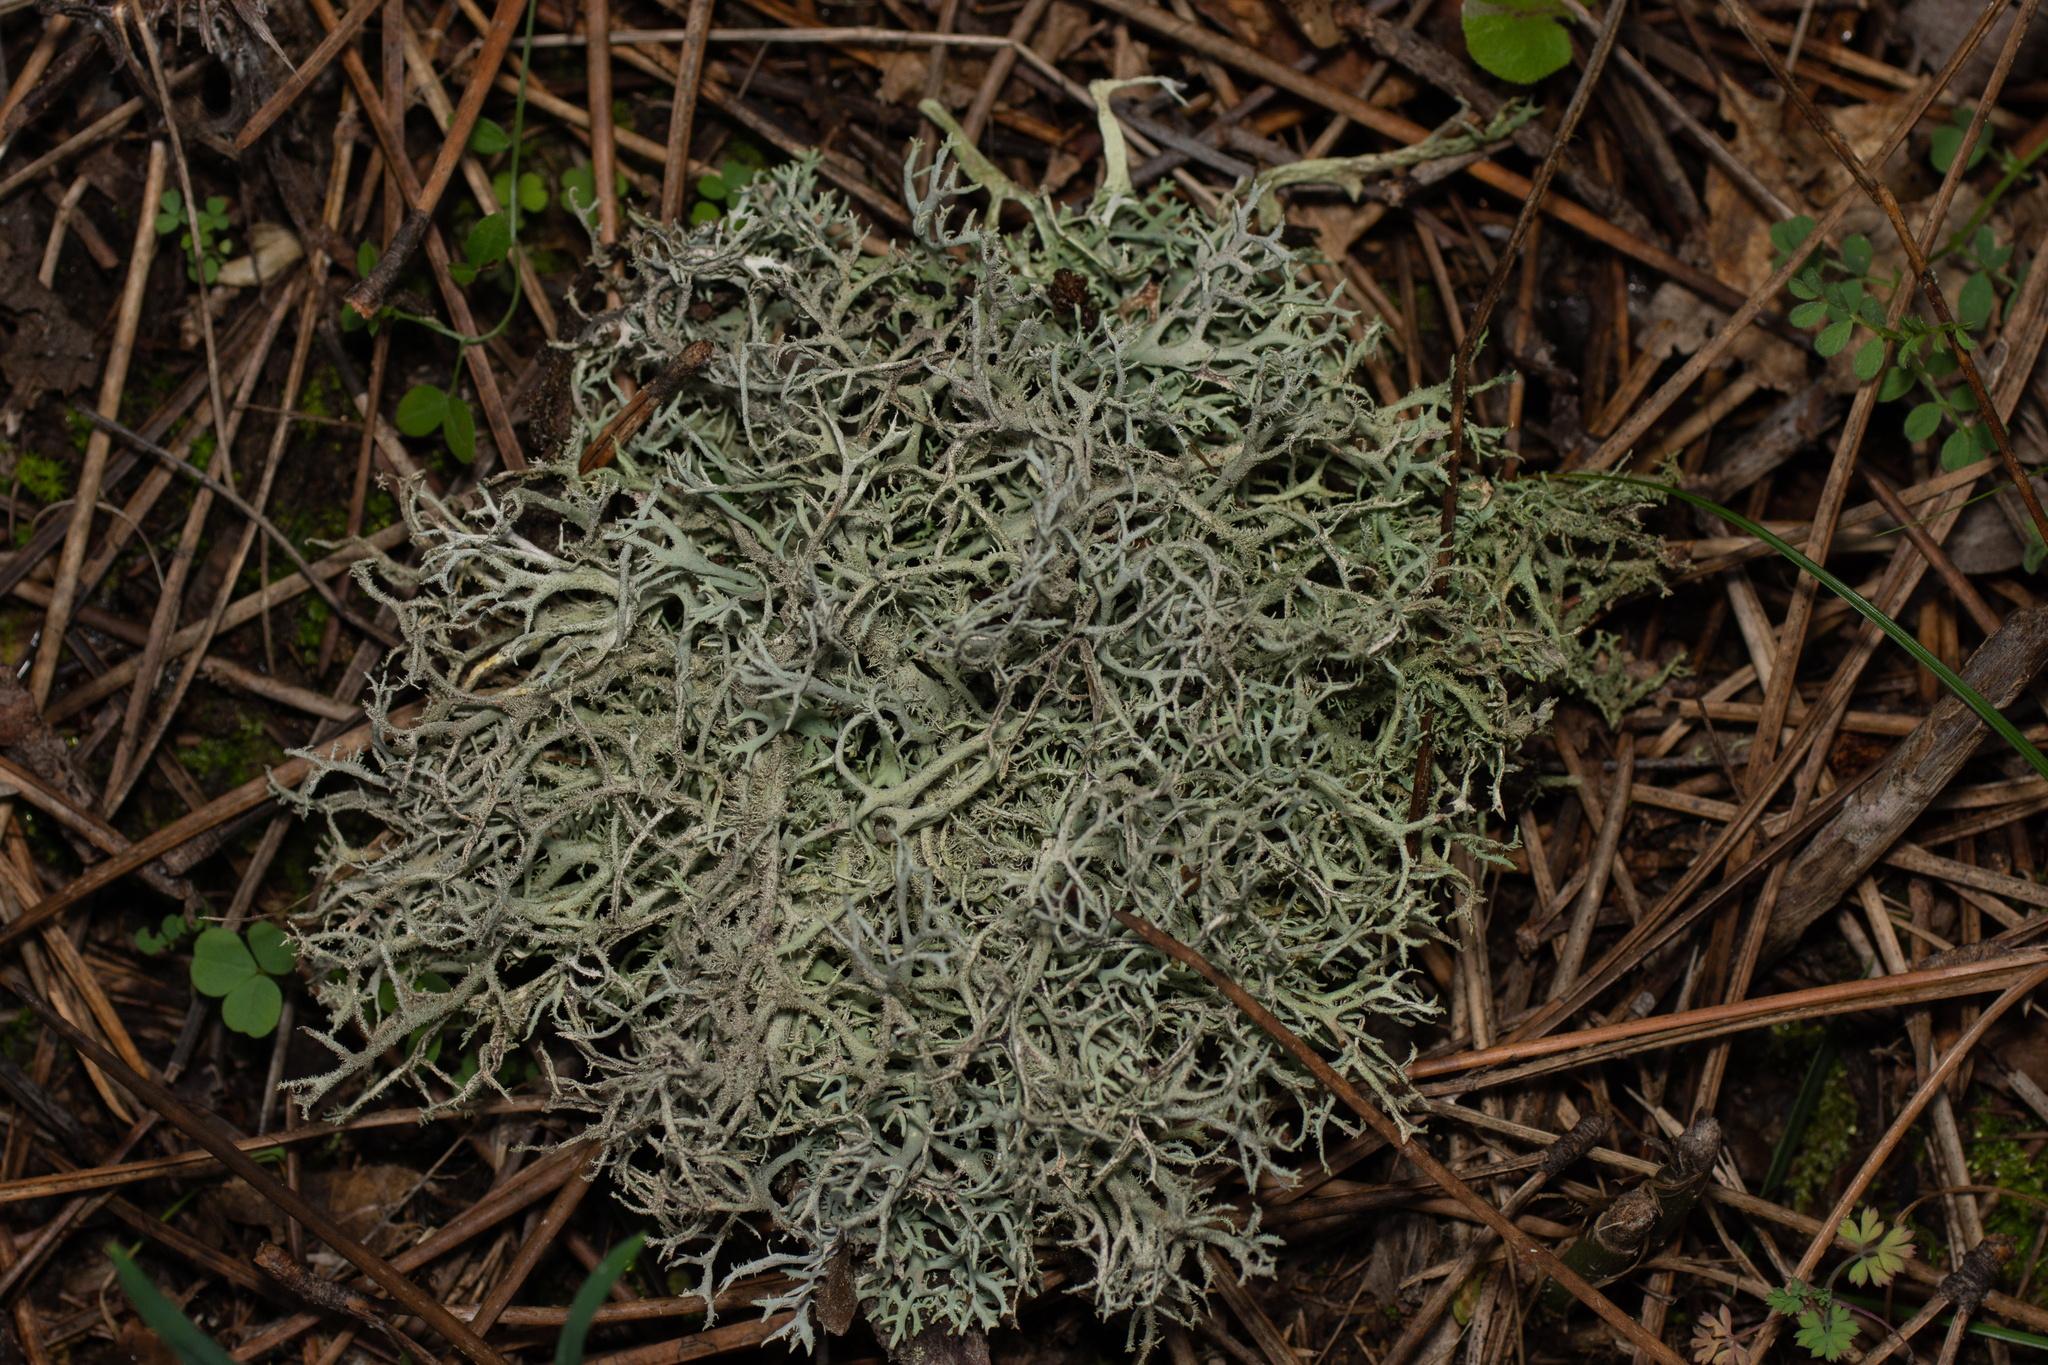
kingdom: Fungi
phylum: Ascomycota
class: Lecanoromycetes
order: Lecanorales
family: Parmeliaceae
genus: Pseudevernia
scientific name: Pseudevernia furfuracea
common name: Tree moss
